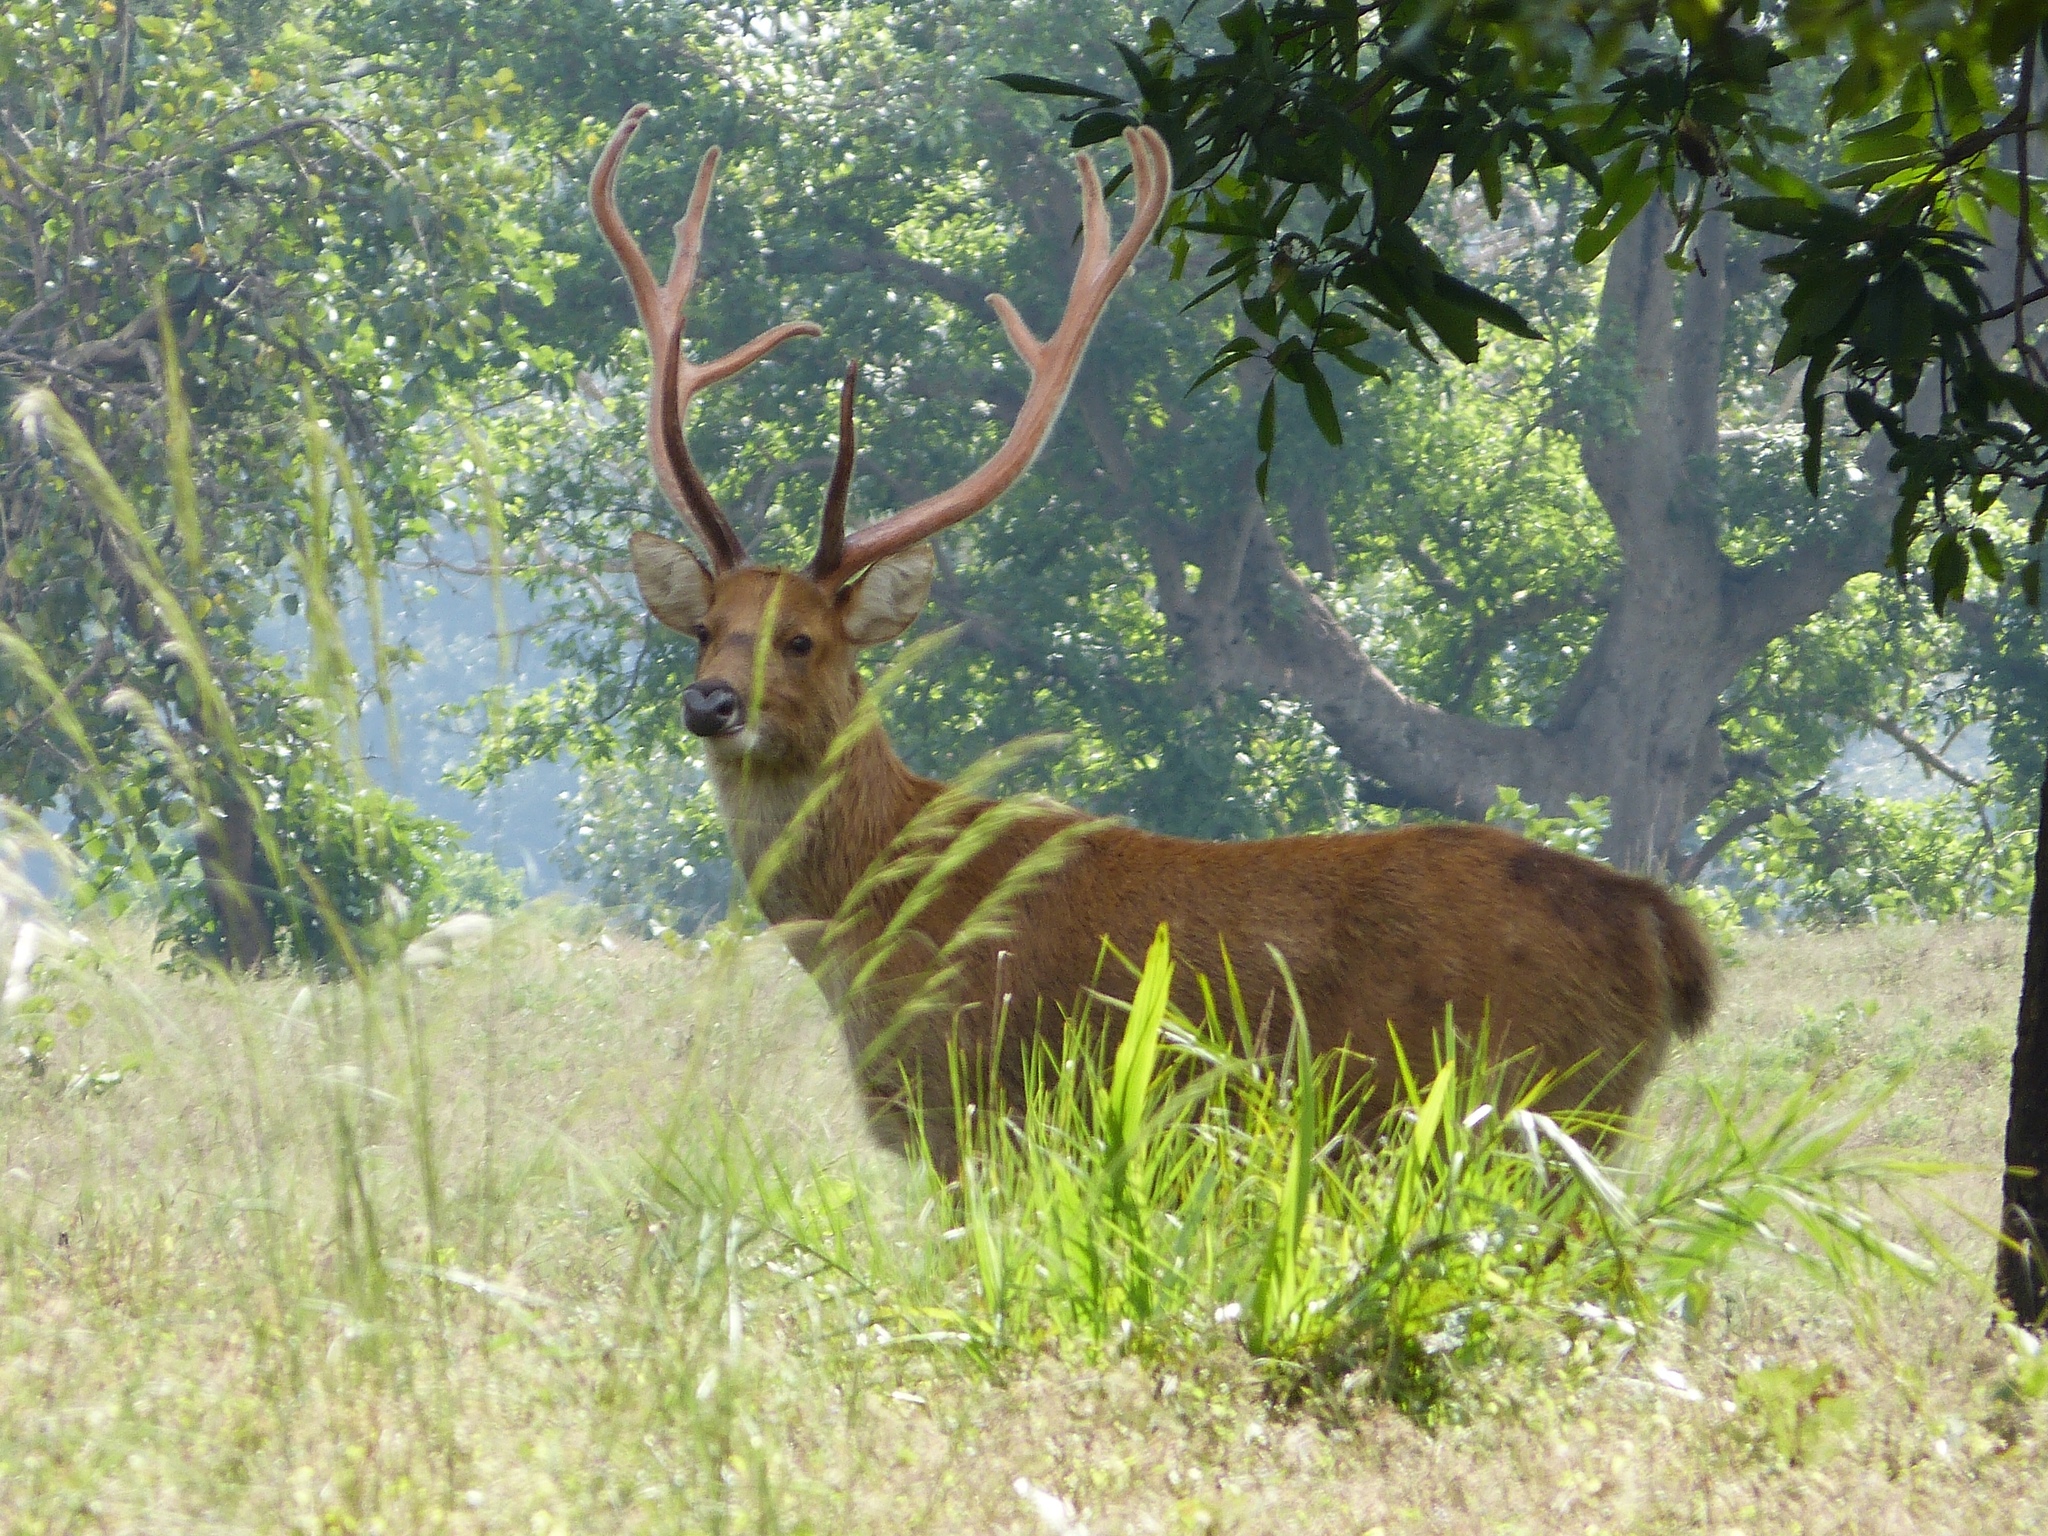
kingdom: Animalia
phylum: Chordata
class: Mammalia
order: Artiodactyla
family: Cervidae
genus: Rucervus
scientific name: Rucervus duvaucelii
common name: Barasingha
